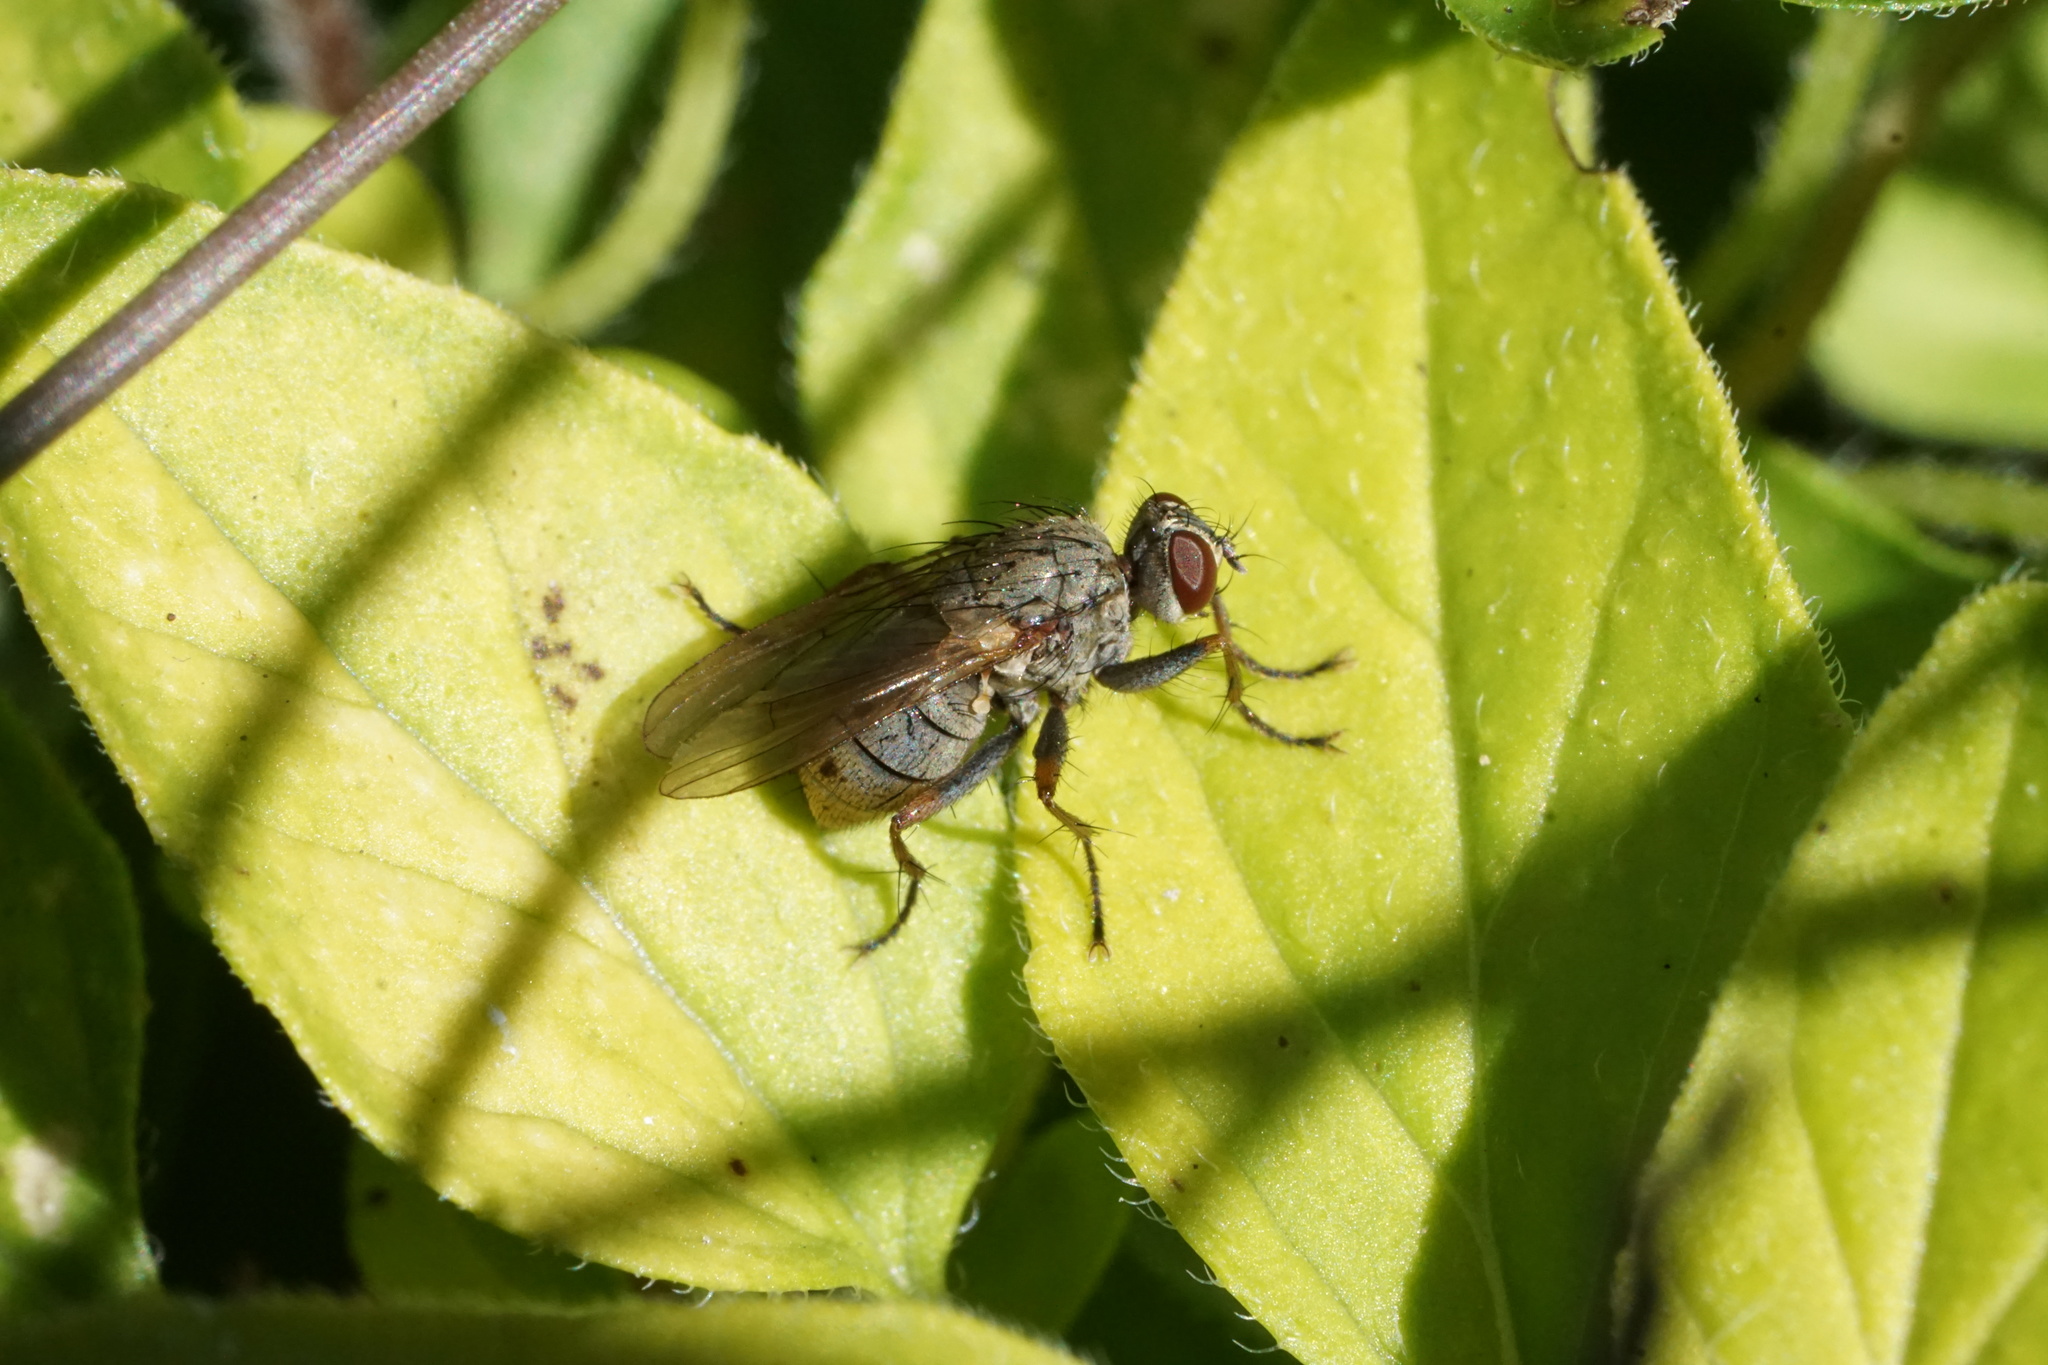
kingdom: Animalia
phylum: Arthropoda
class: Insecta
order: Diptera
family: Muscidae
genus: Coenosia
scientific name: Coenosia tigrina
